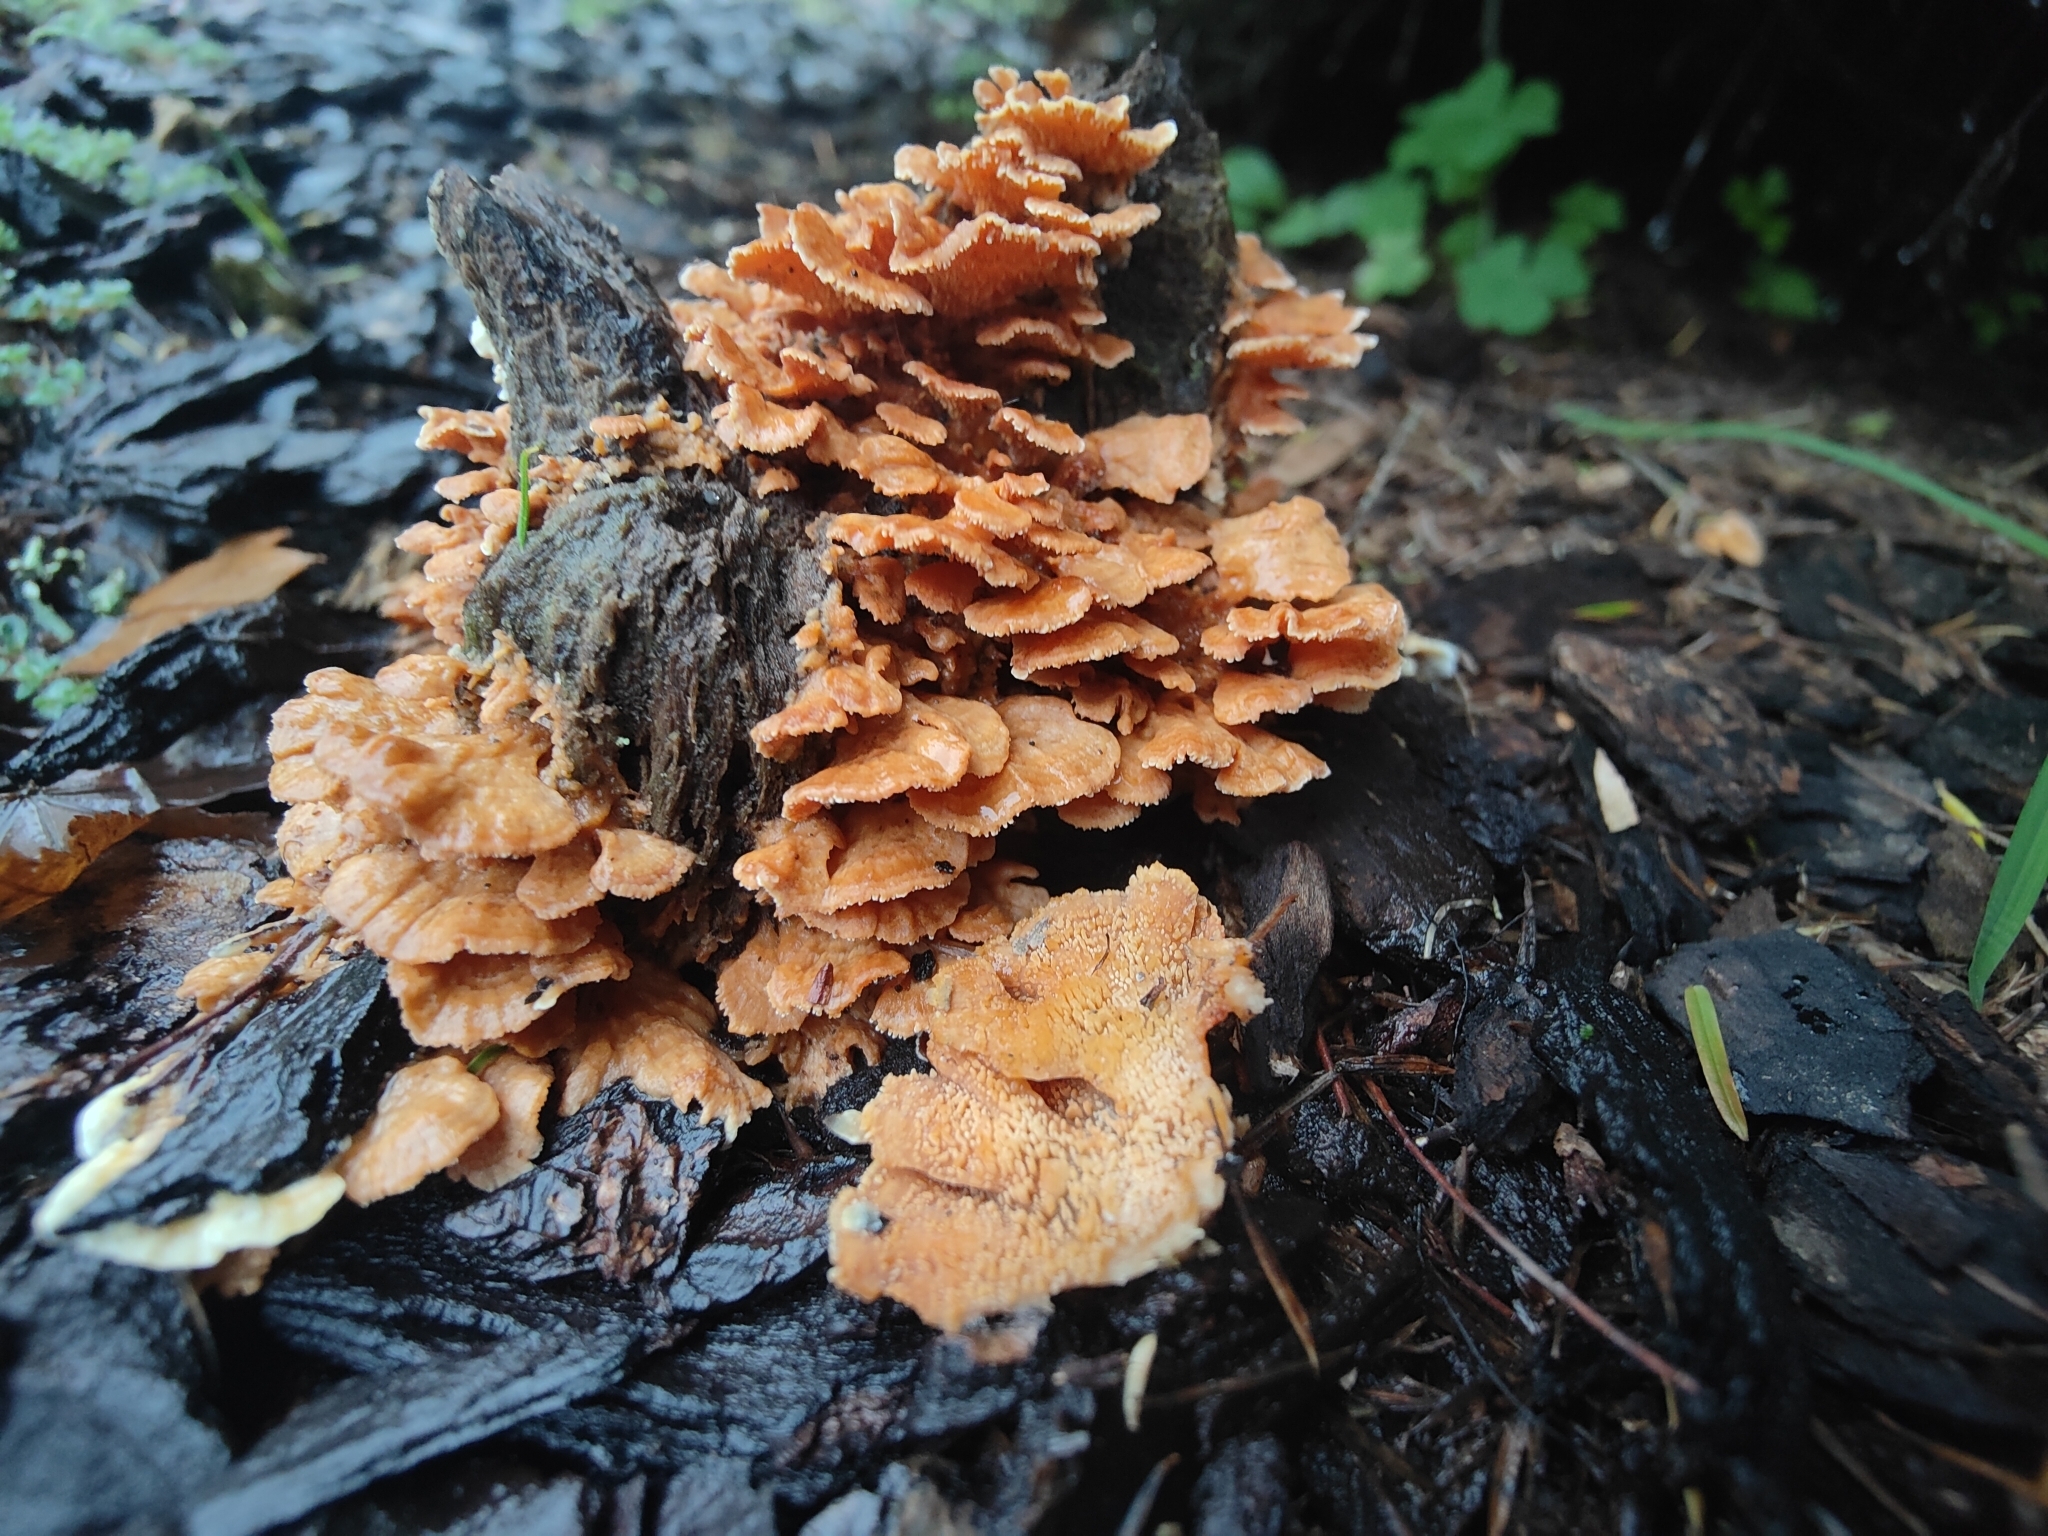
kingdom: Fungi
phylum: Basidiomycota
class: Agaricomycetes
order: Polyporales
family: Cerrenaceae
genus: Cerrena
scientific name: Cerrena zonata
